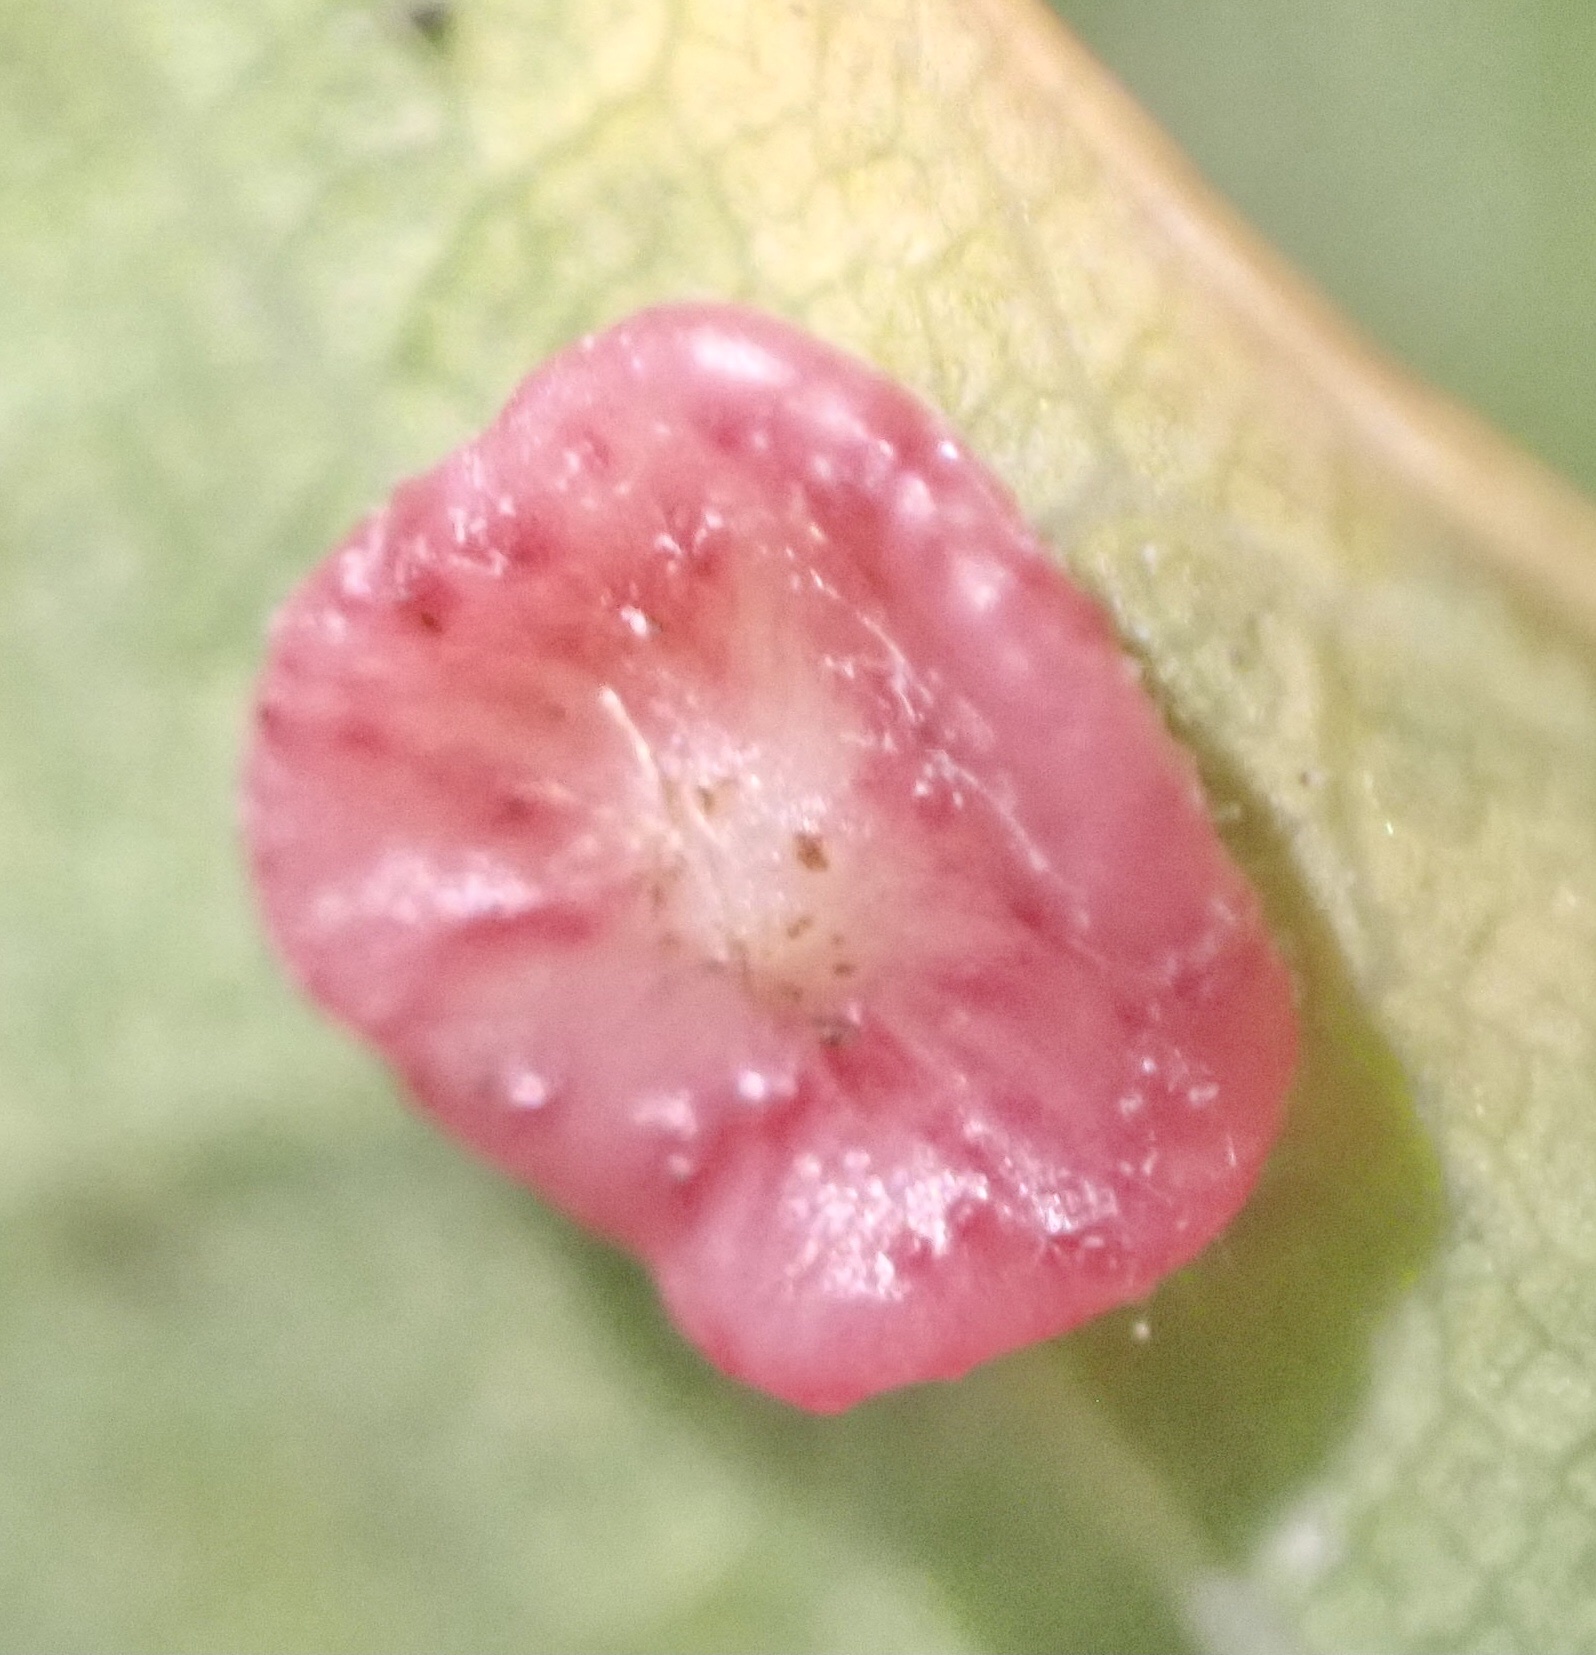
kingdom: Animalia
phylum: Arthropoda
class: Insecta
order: Hymenoptera
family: Cynipidae
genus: Neuroterus
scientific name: Neuroterus albipes
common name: Smooth spangle gall
